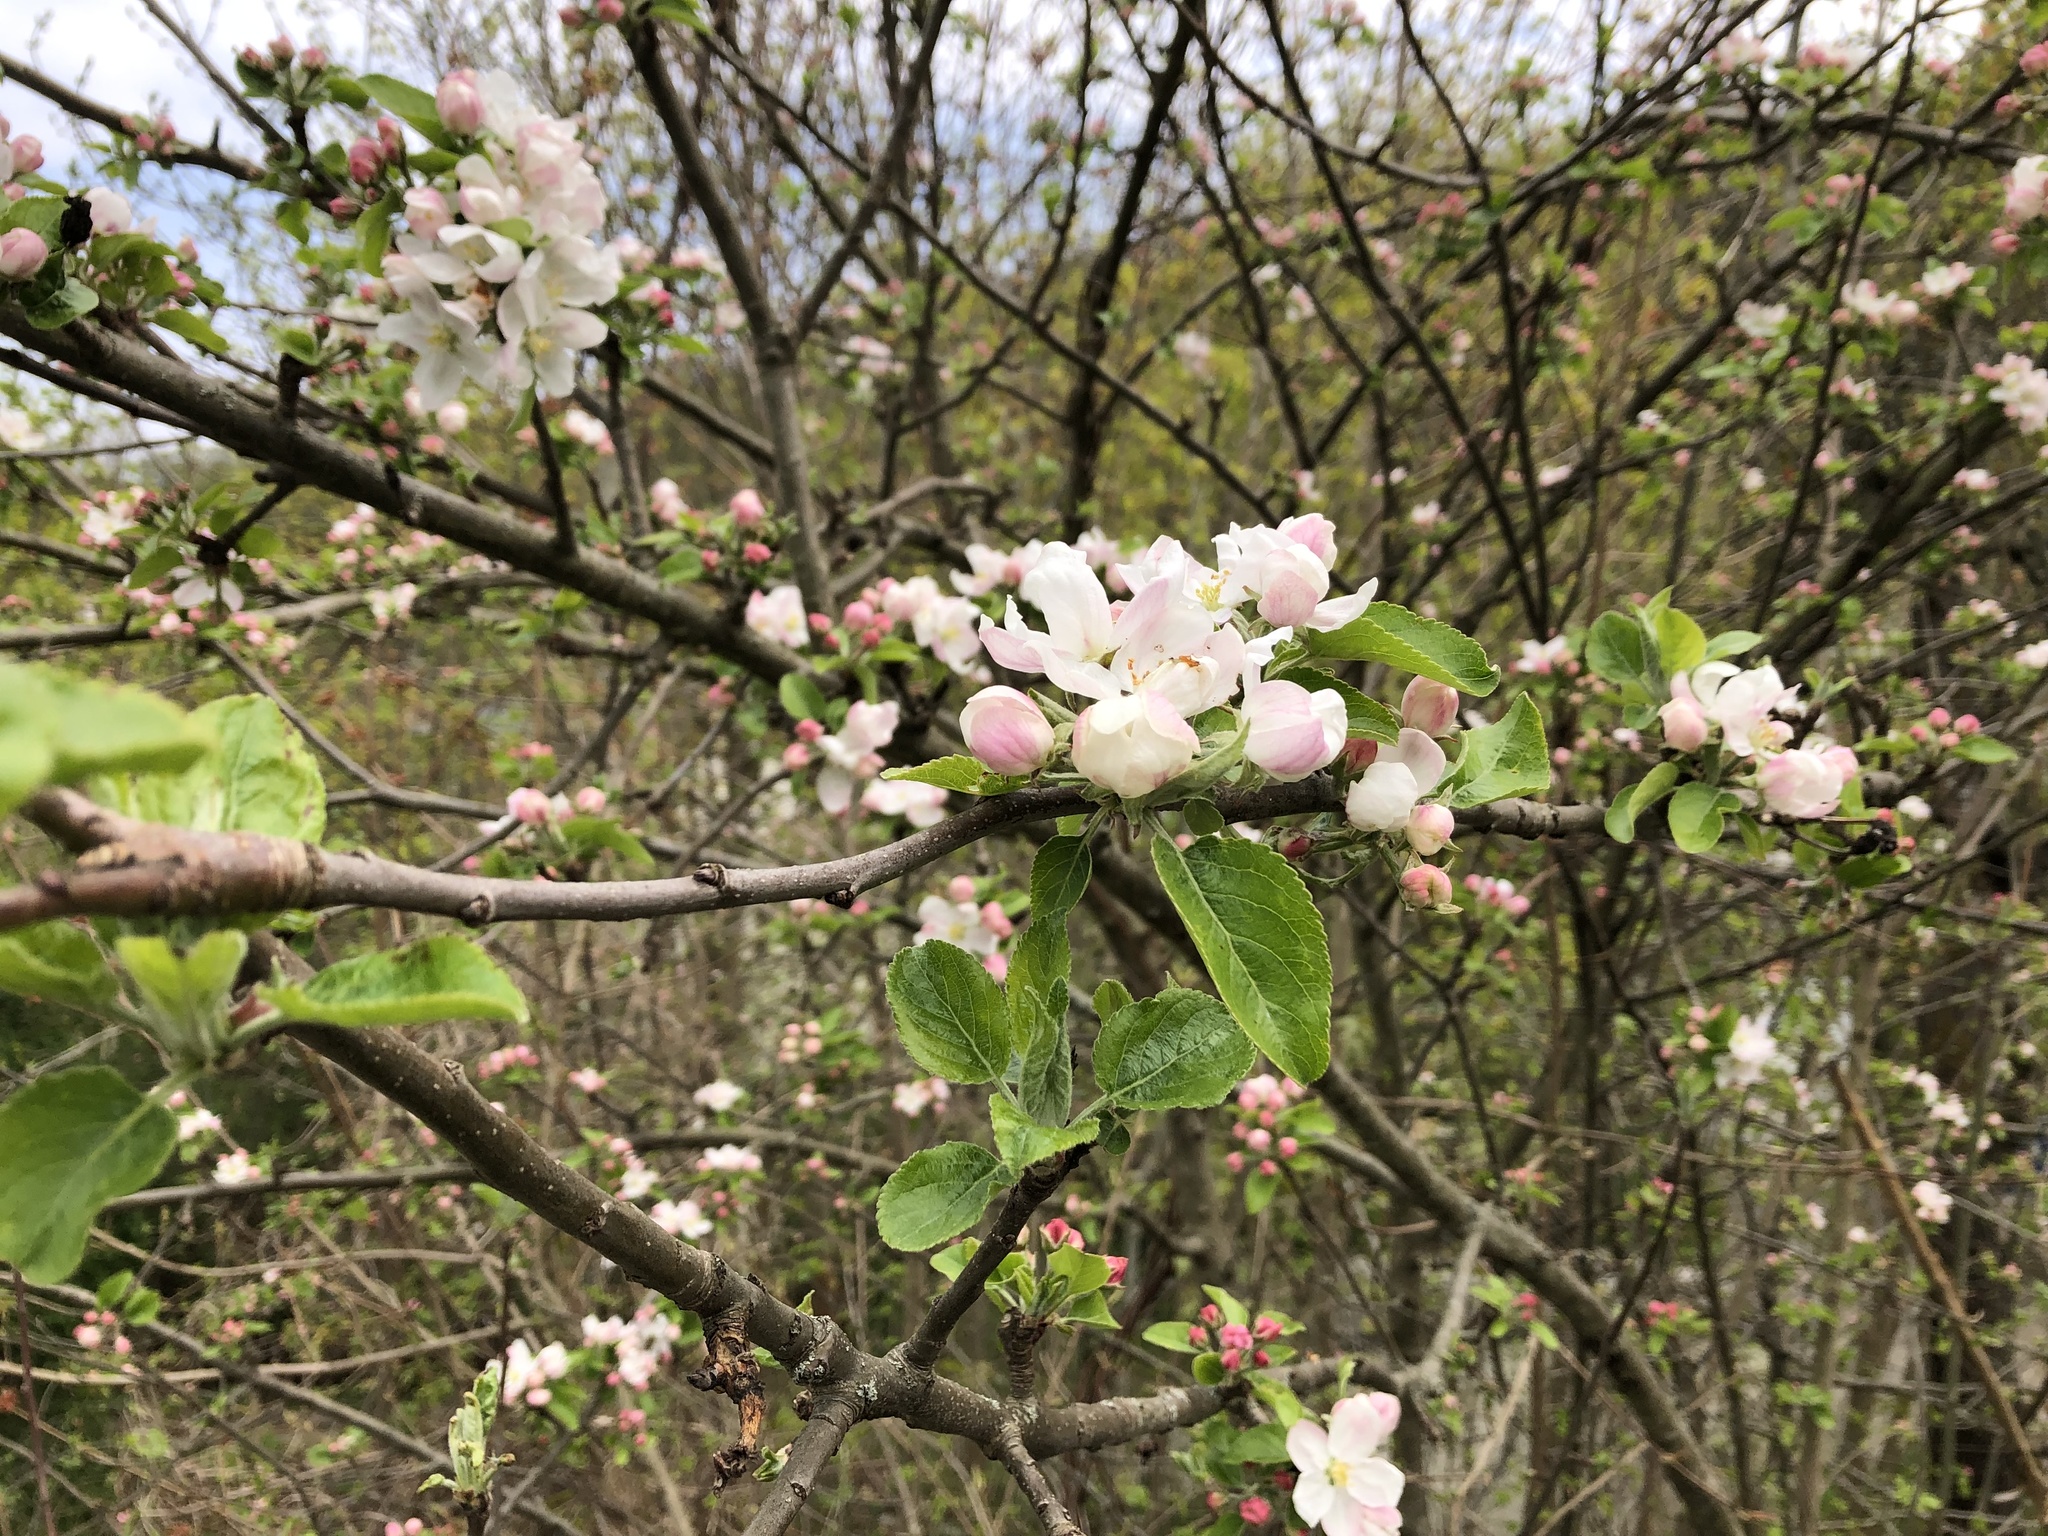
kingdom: Plantae
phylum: Tracheophyta
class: Magnoliopsida
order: Rosales
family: Rosaceae
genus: Malus
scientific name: Malus domestica
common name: Apple
